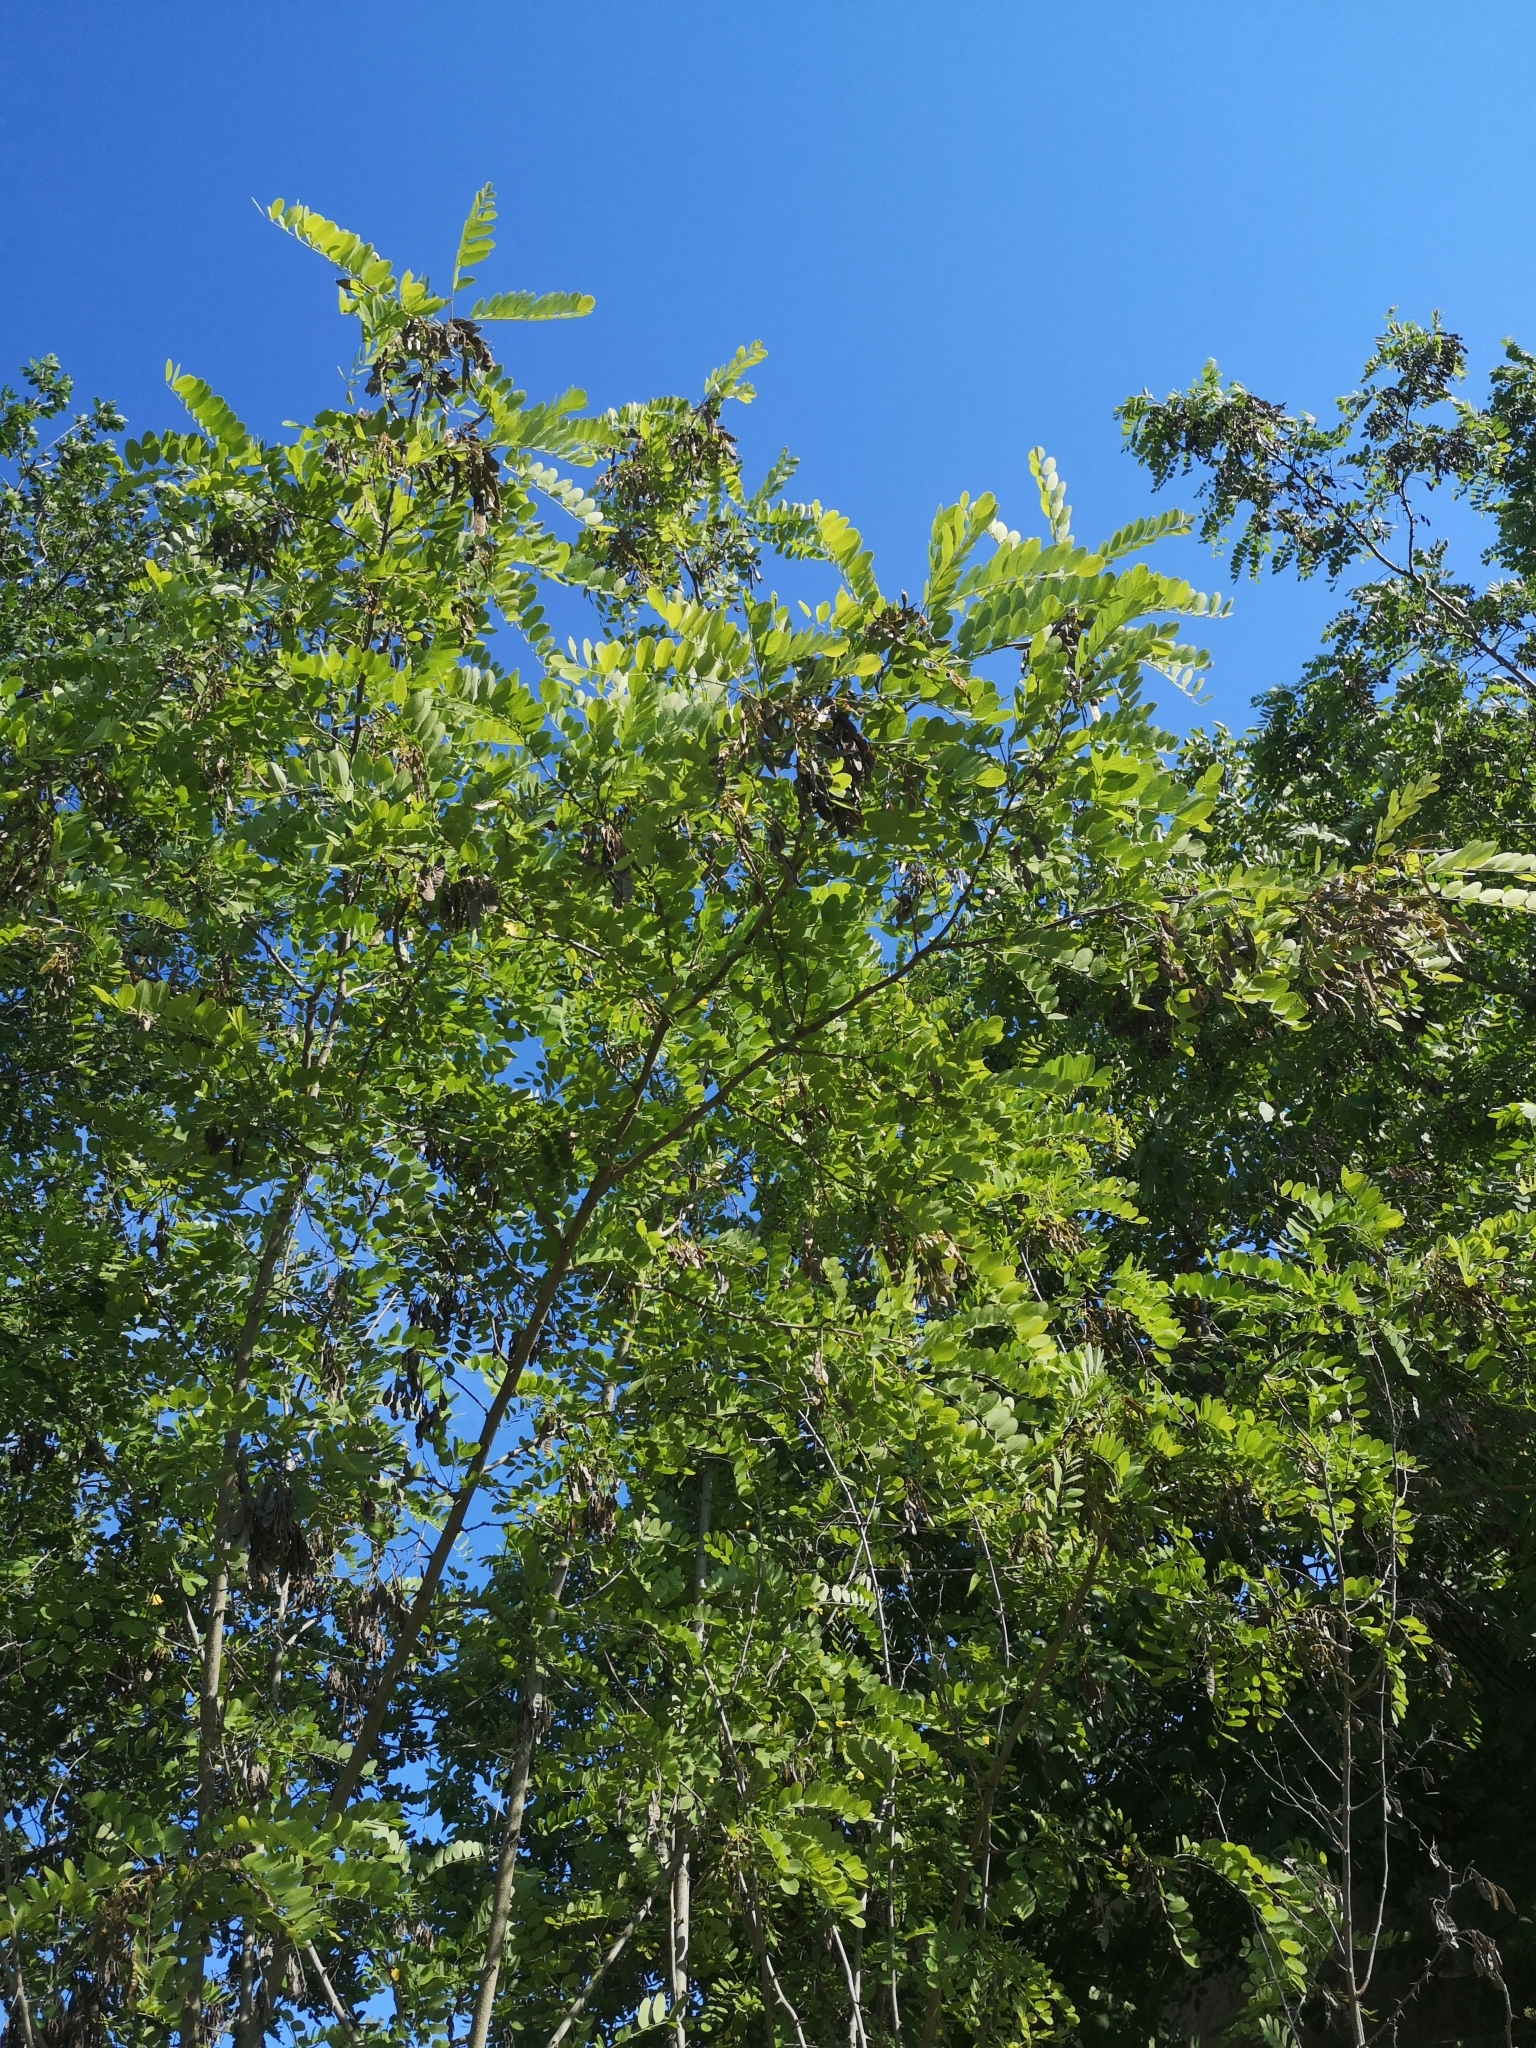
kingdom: Plantae
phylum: Tracheophyta
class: Magnoliopsida
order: Fabales
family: Fabaceae
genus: Robinia
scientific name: Robinia pseudoacacia
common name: Black locust
